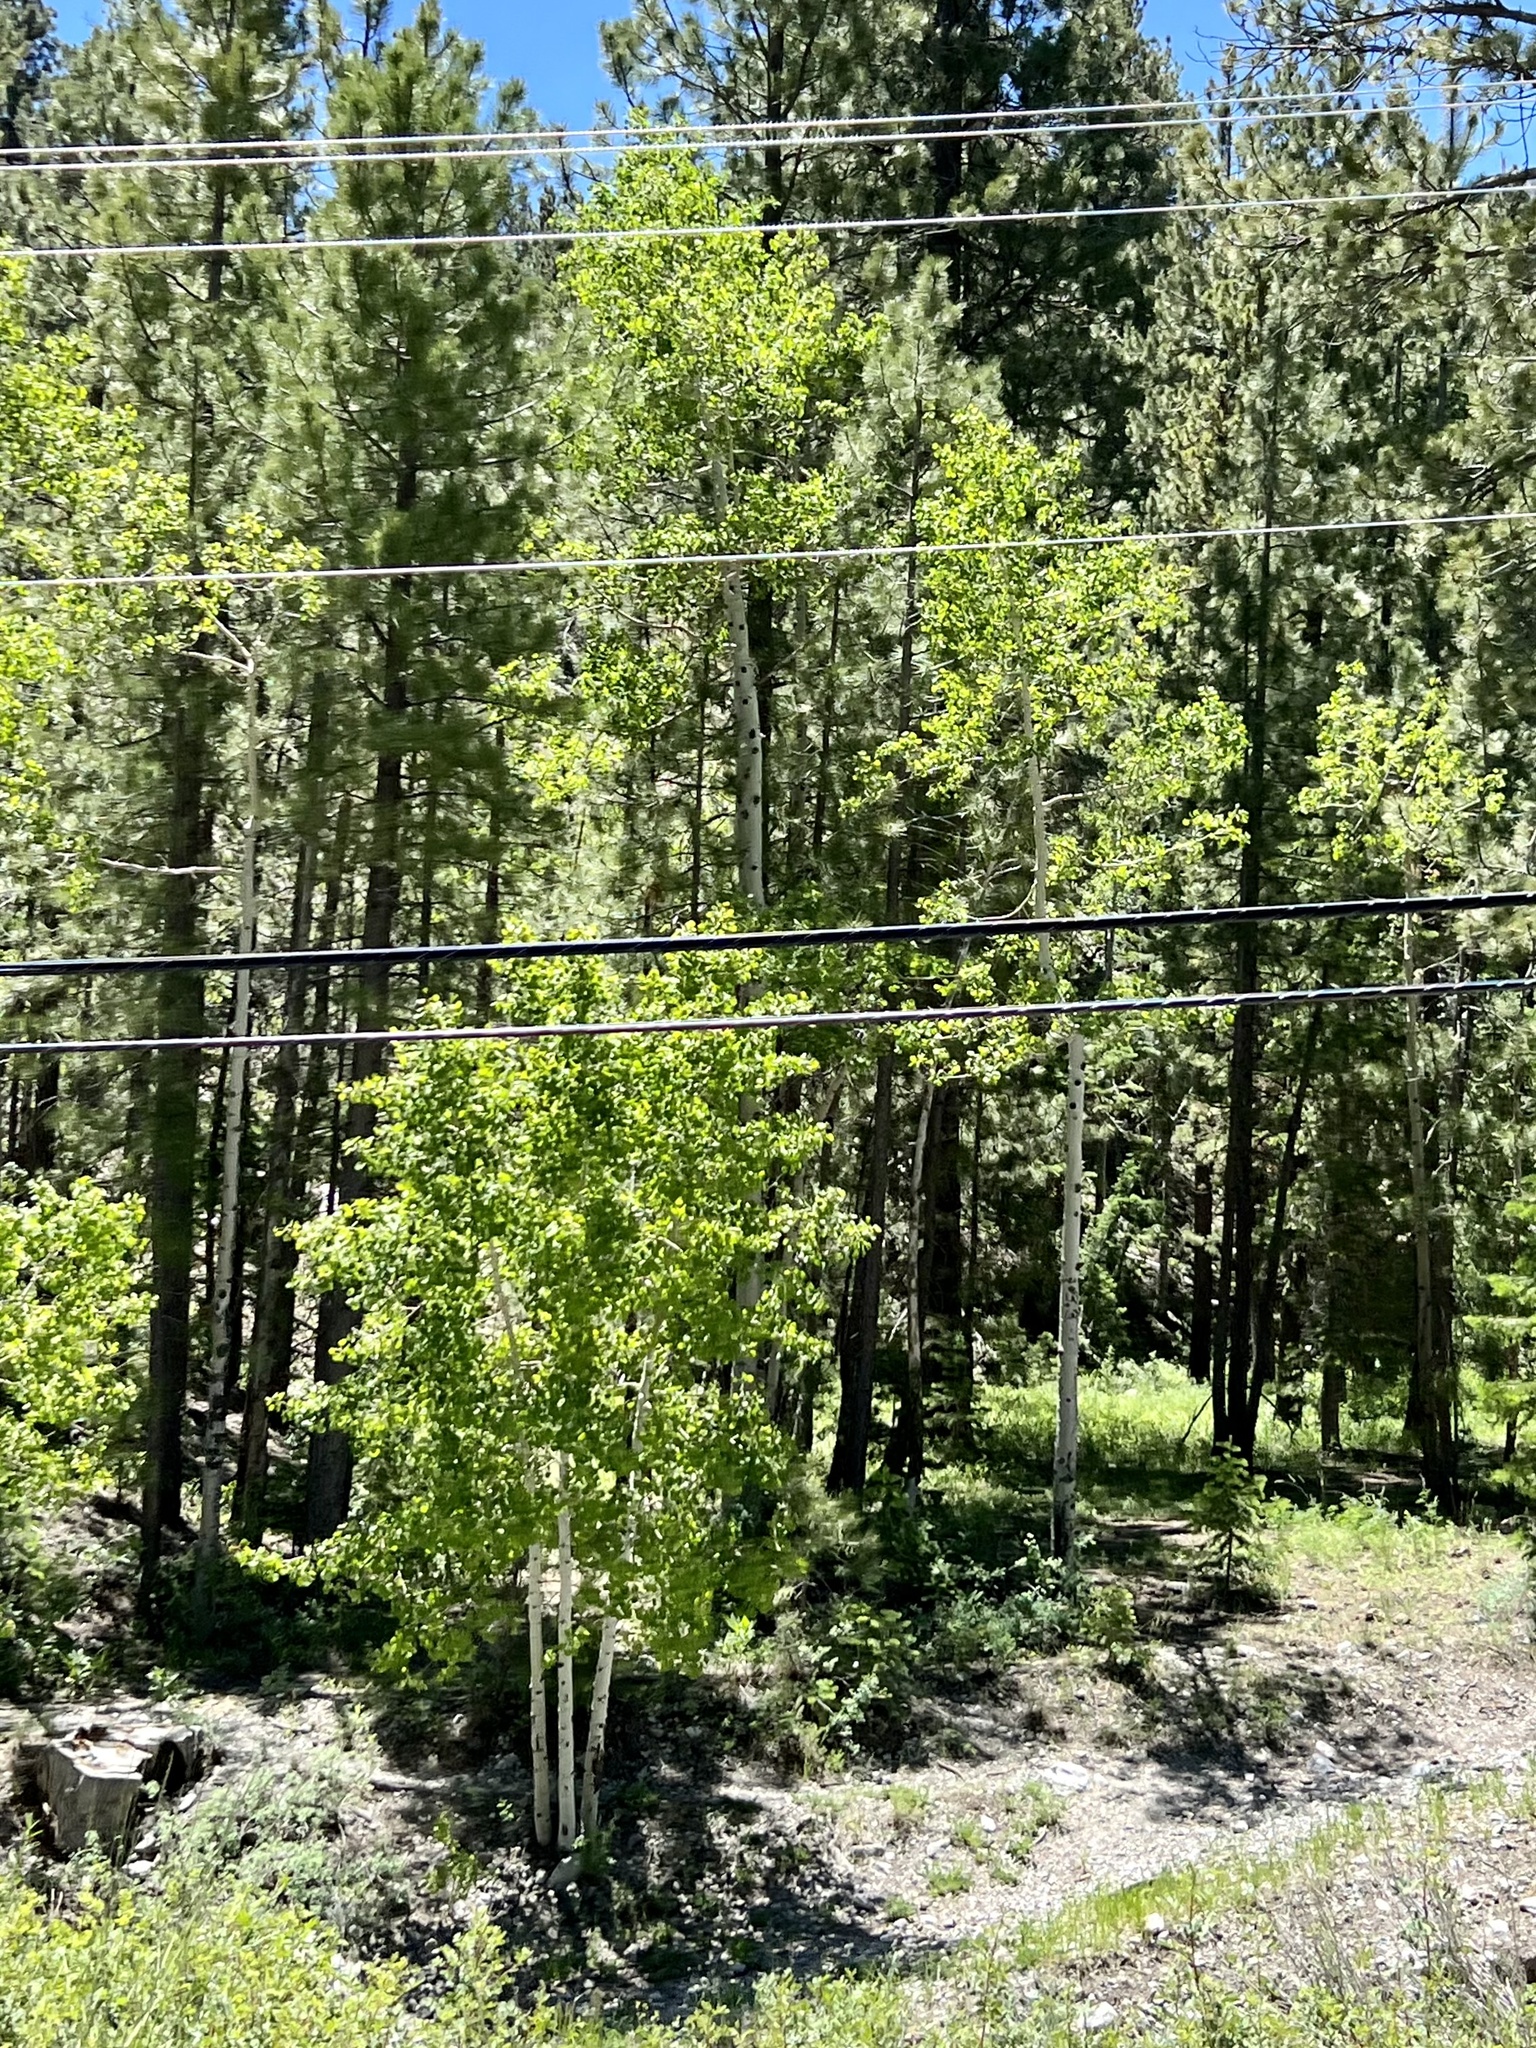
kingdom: Plantae
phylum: Tracheophyta
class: Magnoliopsida
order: Malpighiales
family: Salicaceae
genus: Populus
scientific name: Populus tremuloides
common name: Quaking aspen
